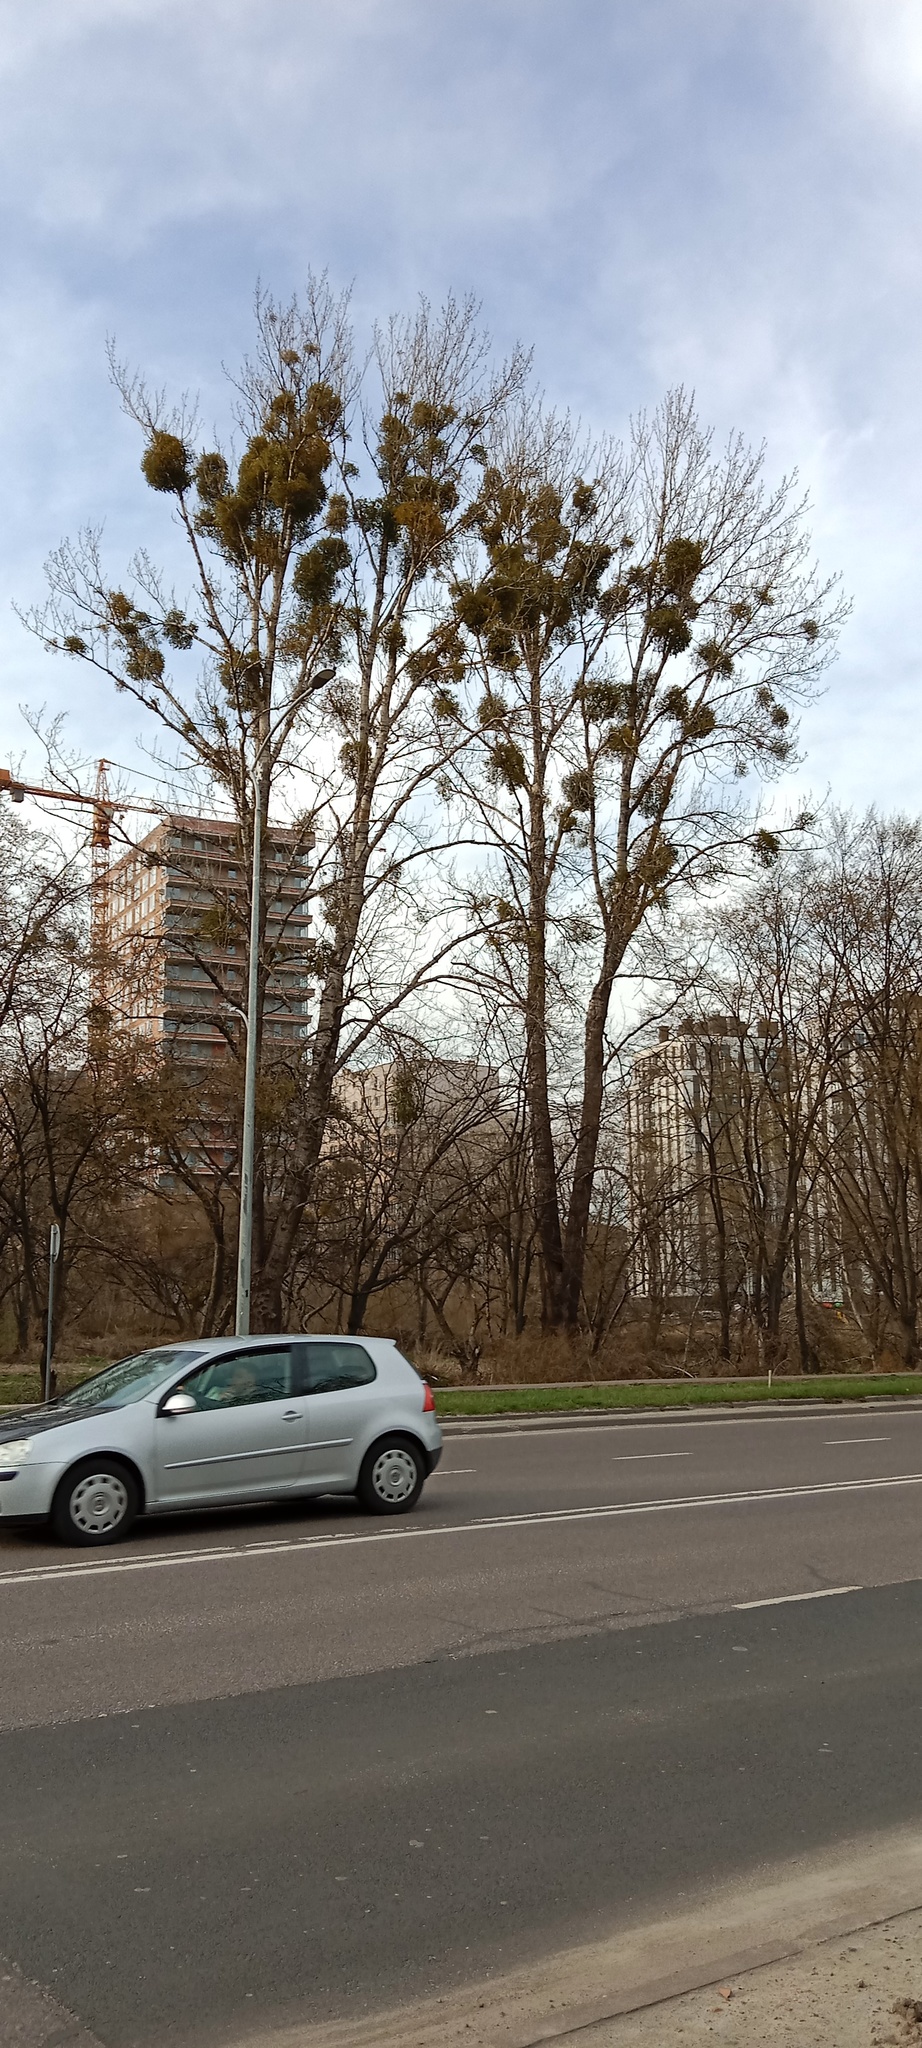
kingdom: Plantae
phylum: Tracheophyta
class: Magnoliopsida
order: Santalales
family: Viscaceae
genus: Viscum
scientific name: Viscum album
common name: Mistletoe
